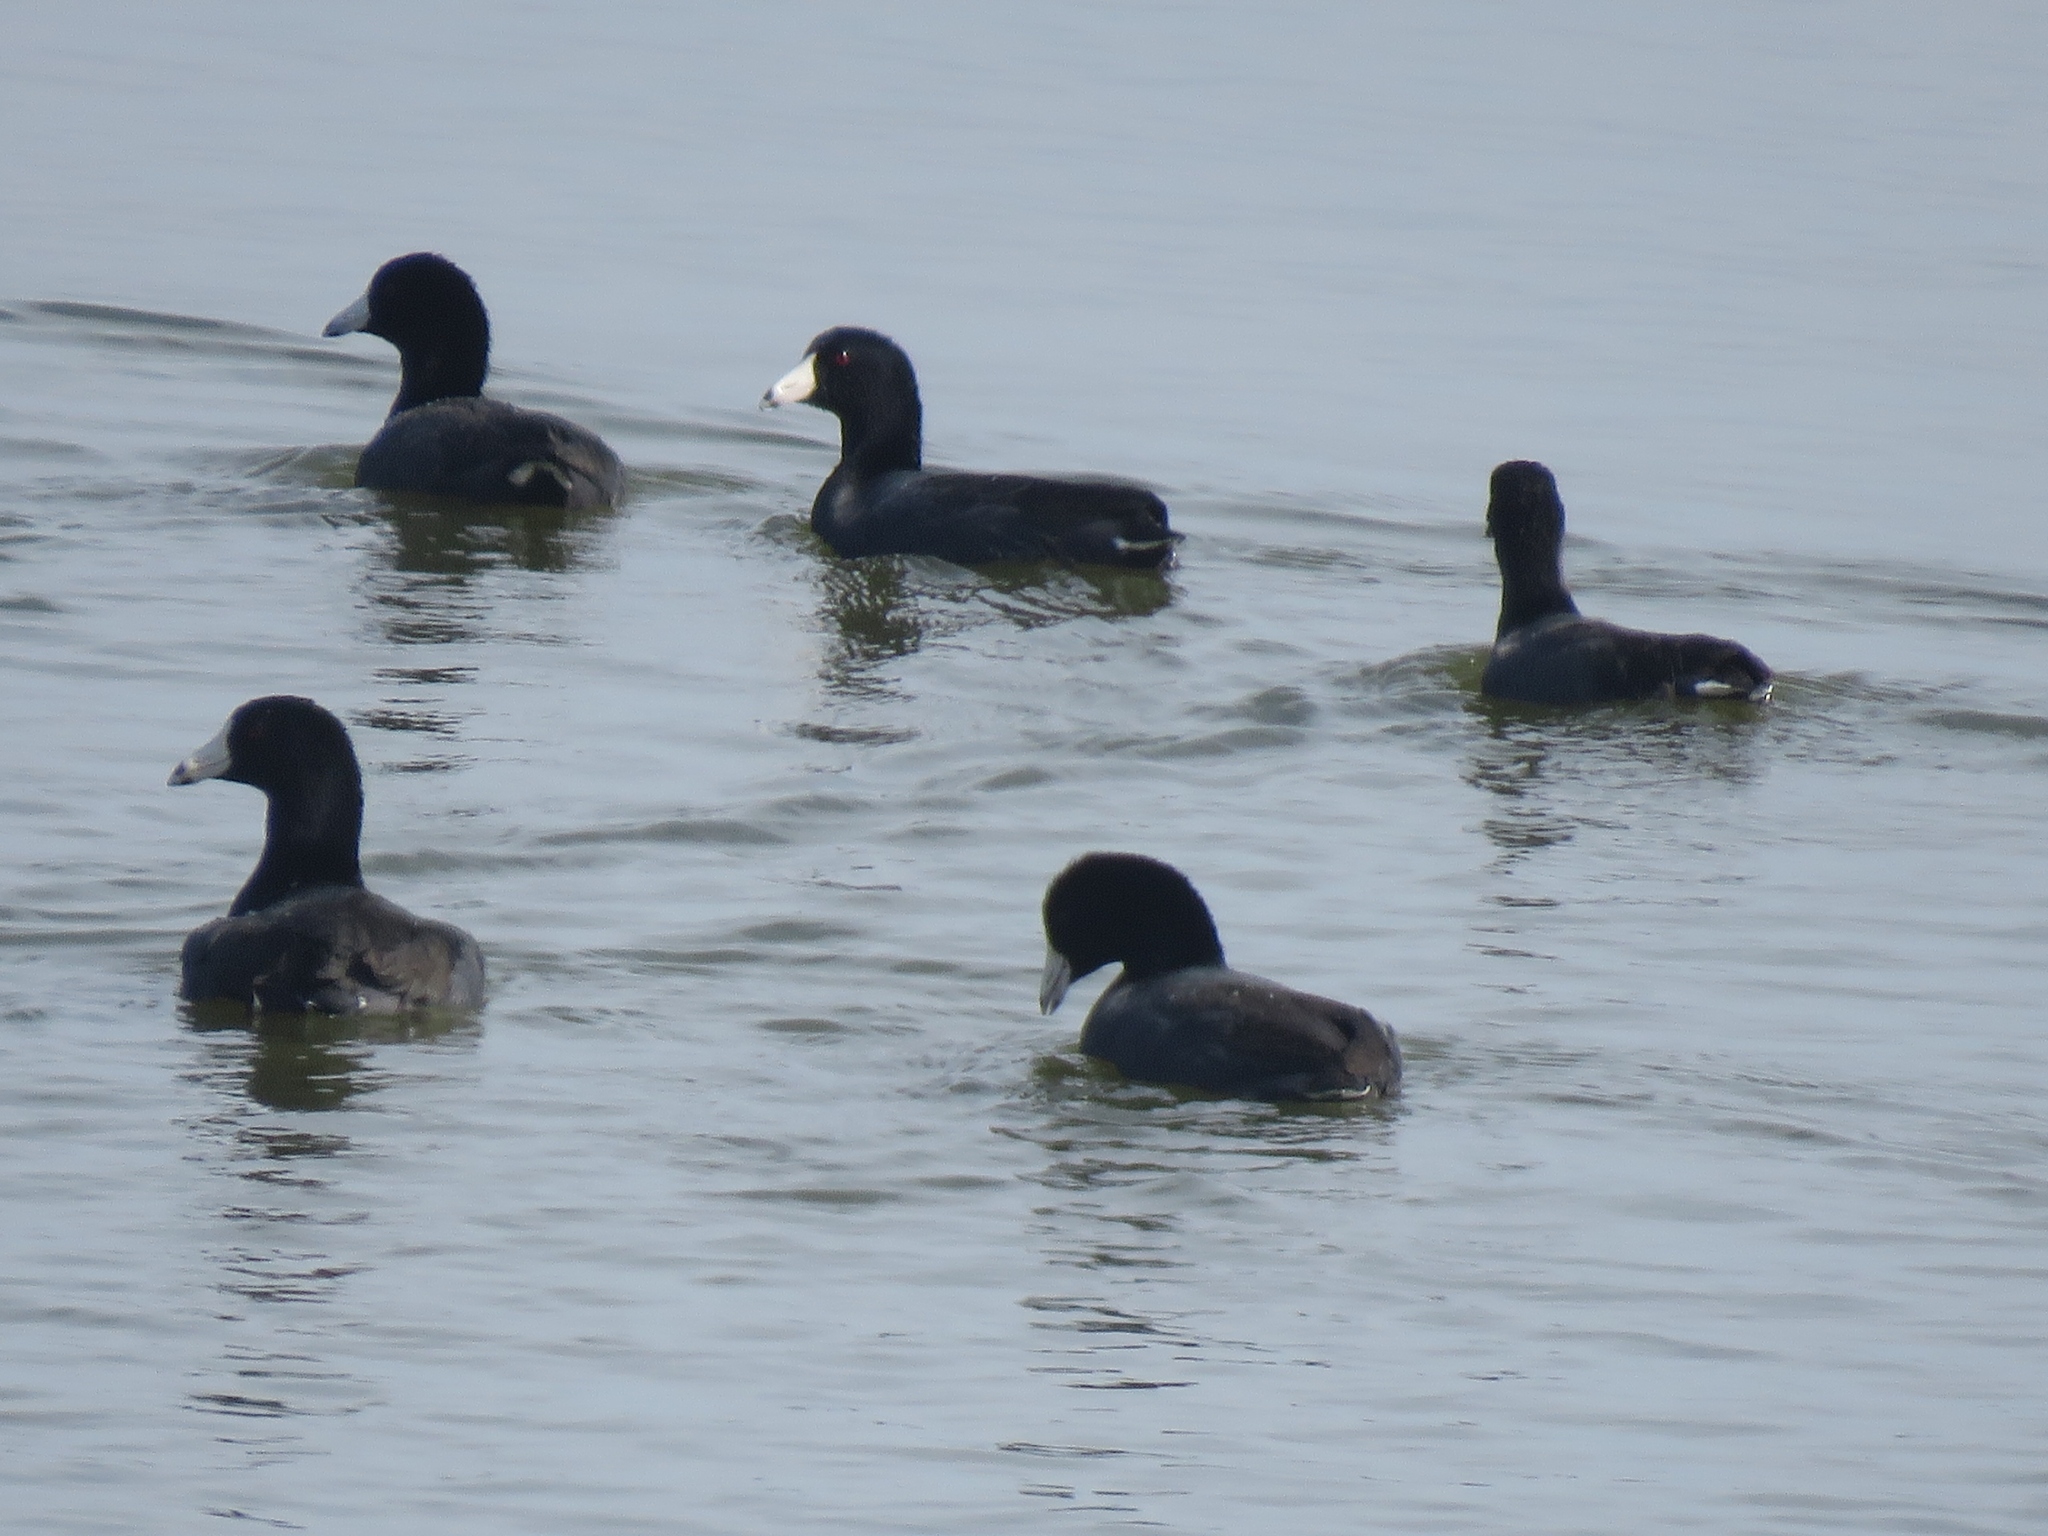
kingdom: Animalia
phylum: Chordata
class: Aves
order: Gruiformes
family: Rallidae
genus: Fulica
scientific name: Fulica americana
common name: American coot
